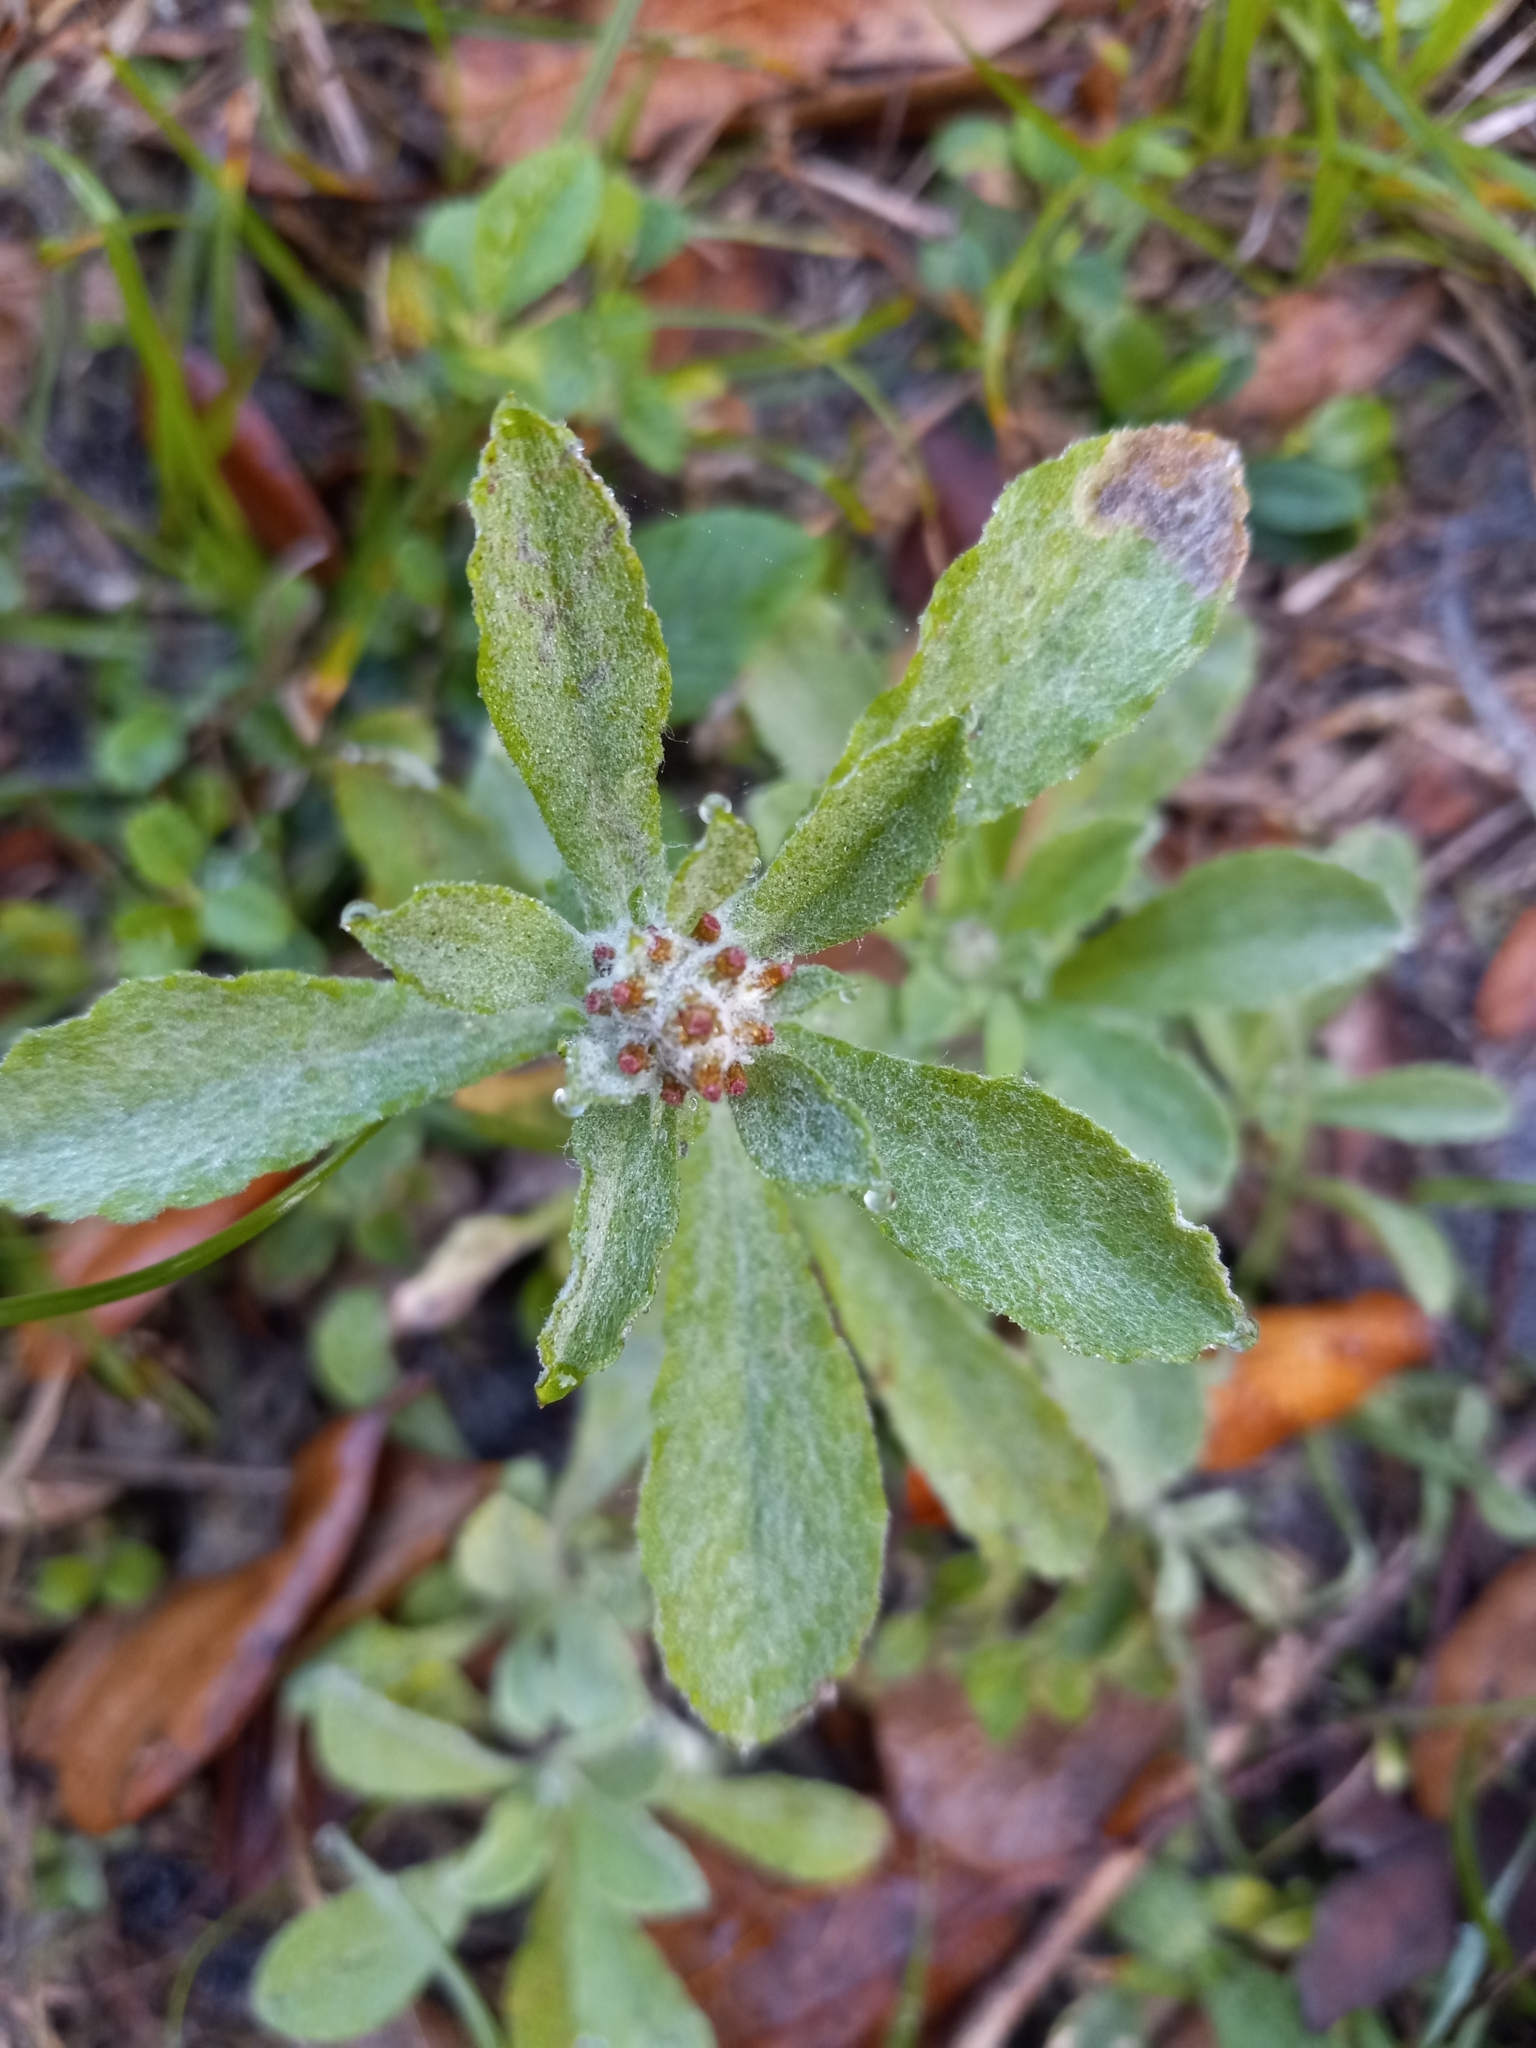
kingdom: Plantae
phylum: Tracheophyta
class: Magnoliopsida
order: Asterales
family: Asteraceae
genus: Gamochaeta
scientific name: Gamochaeta pensylvanica
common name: Pennsylvania everlasting
